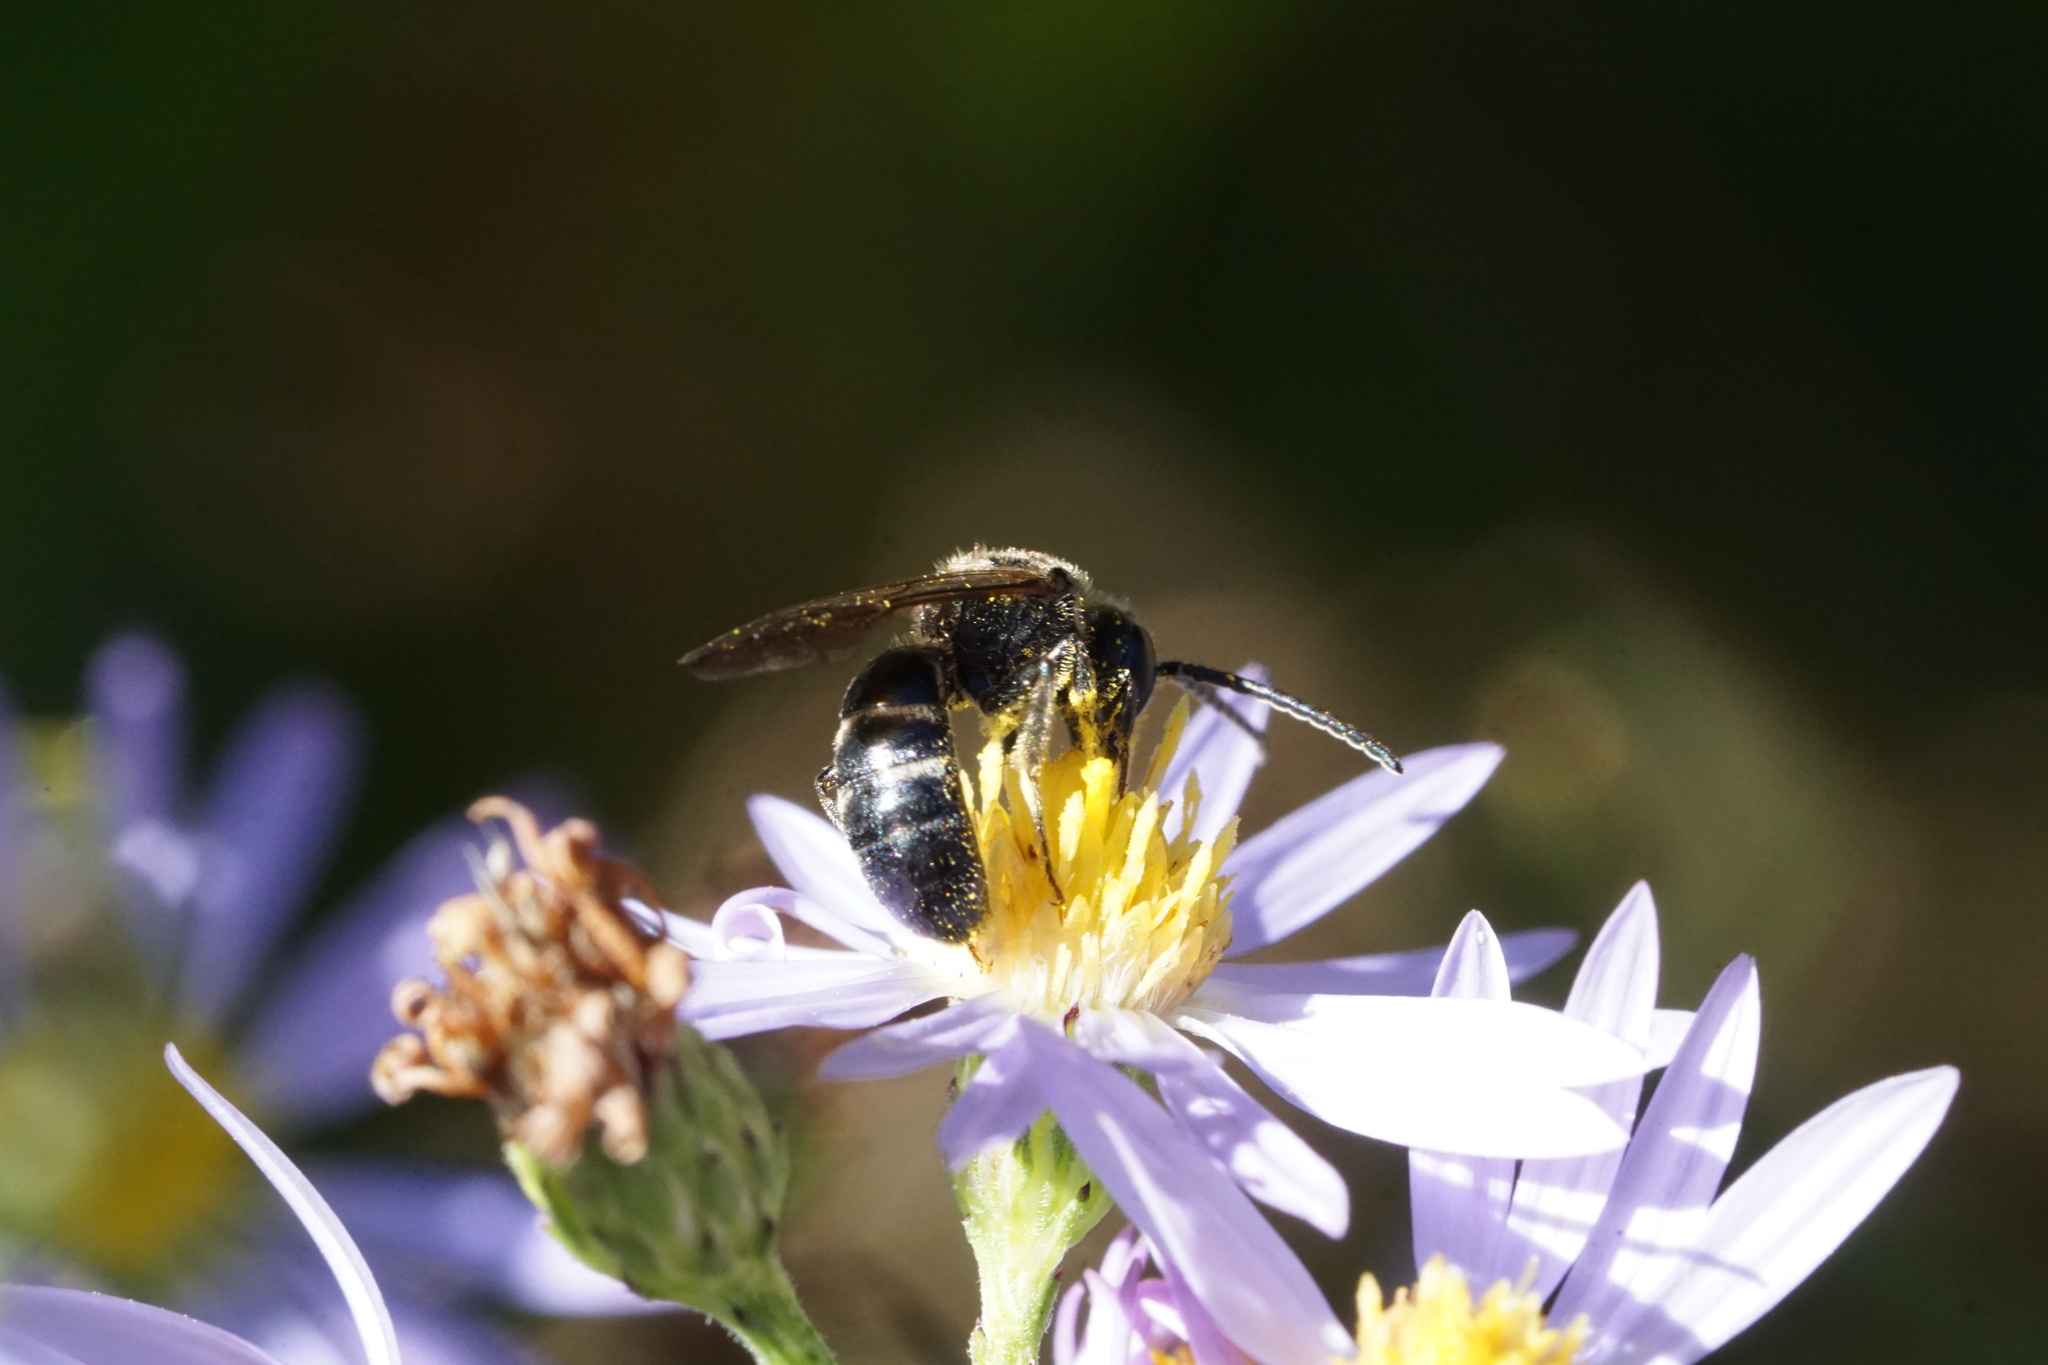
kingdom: Animalia
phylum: Arthropoda
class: Insecta
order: Hymenoptera
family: Halictidae
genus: Lasioglossum
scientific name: Lasioglossum fuscipenne
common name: Brown-winged sweat bee
